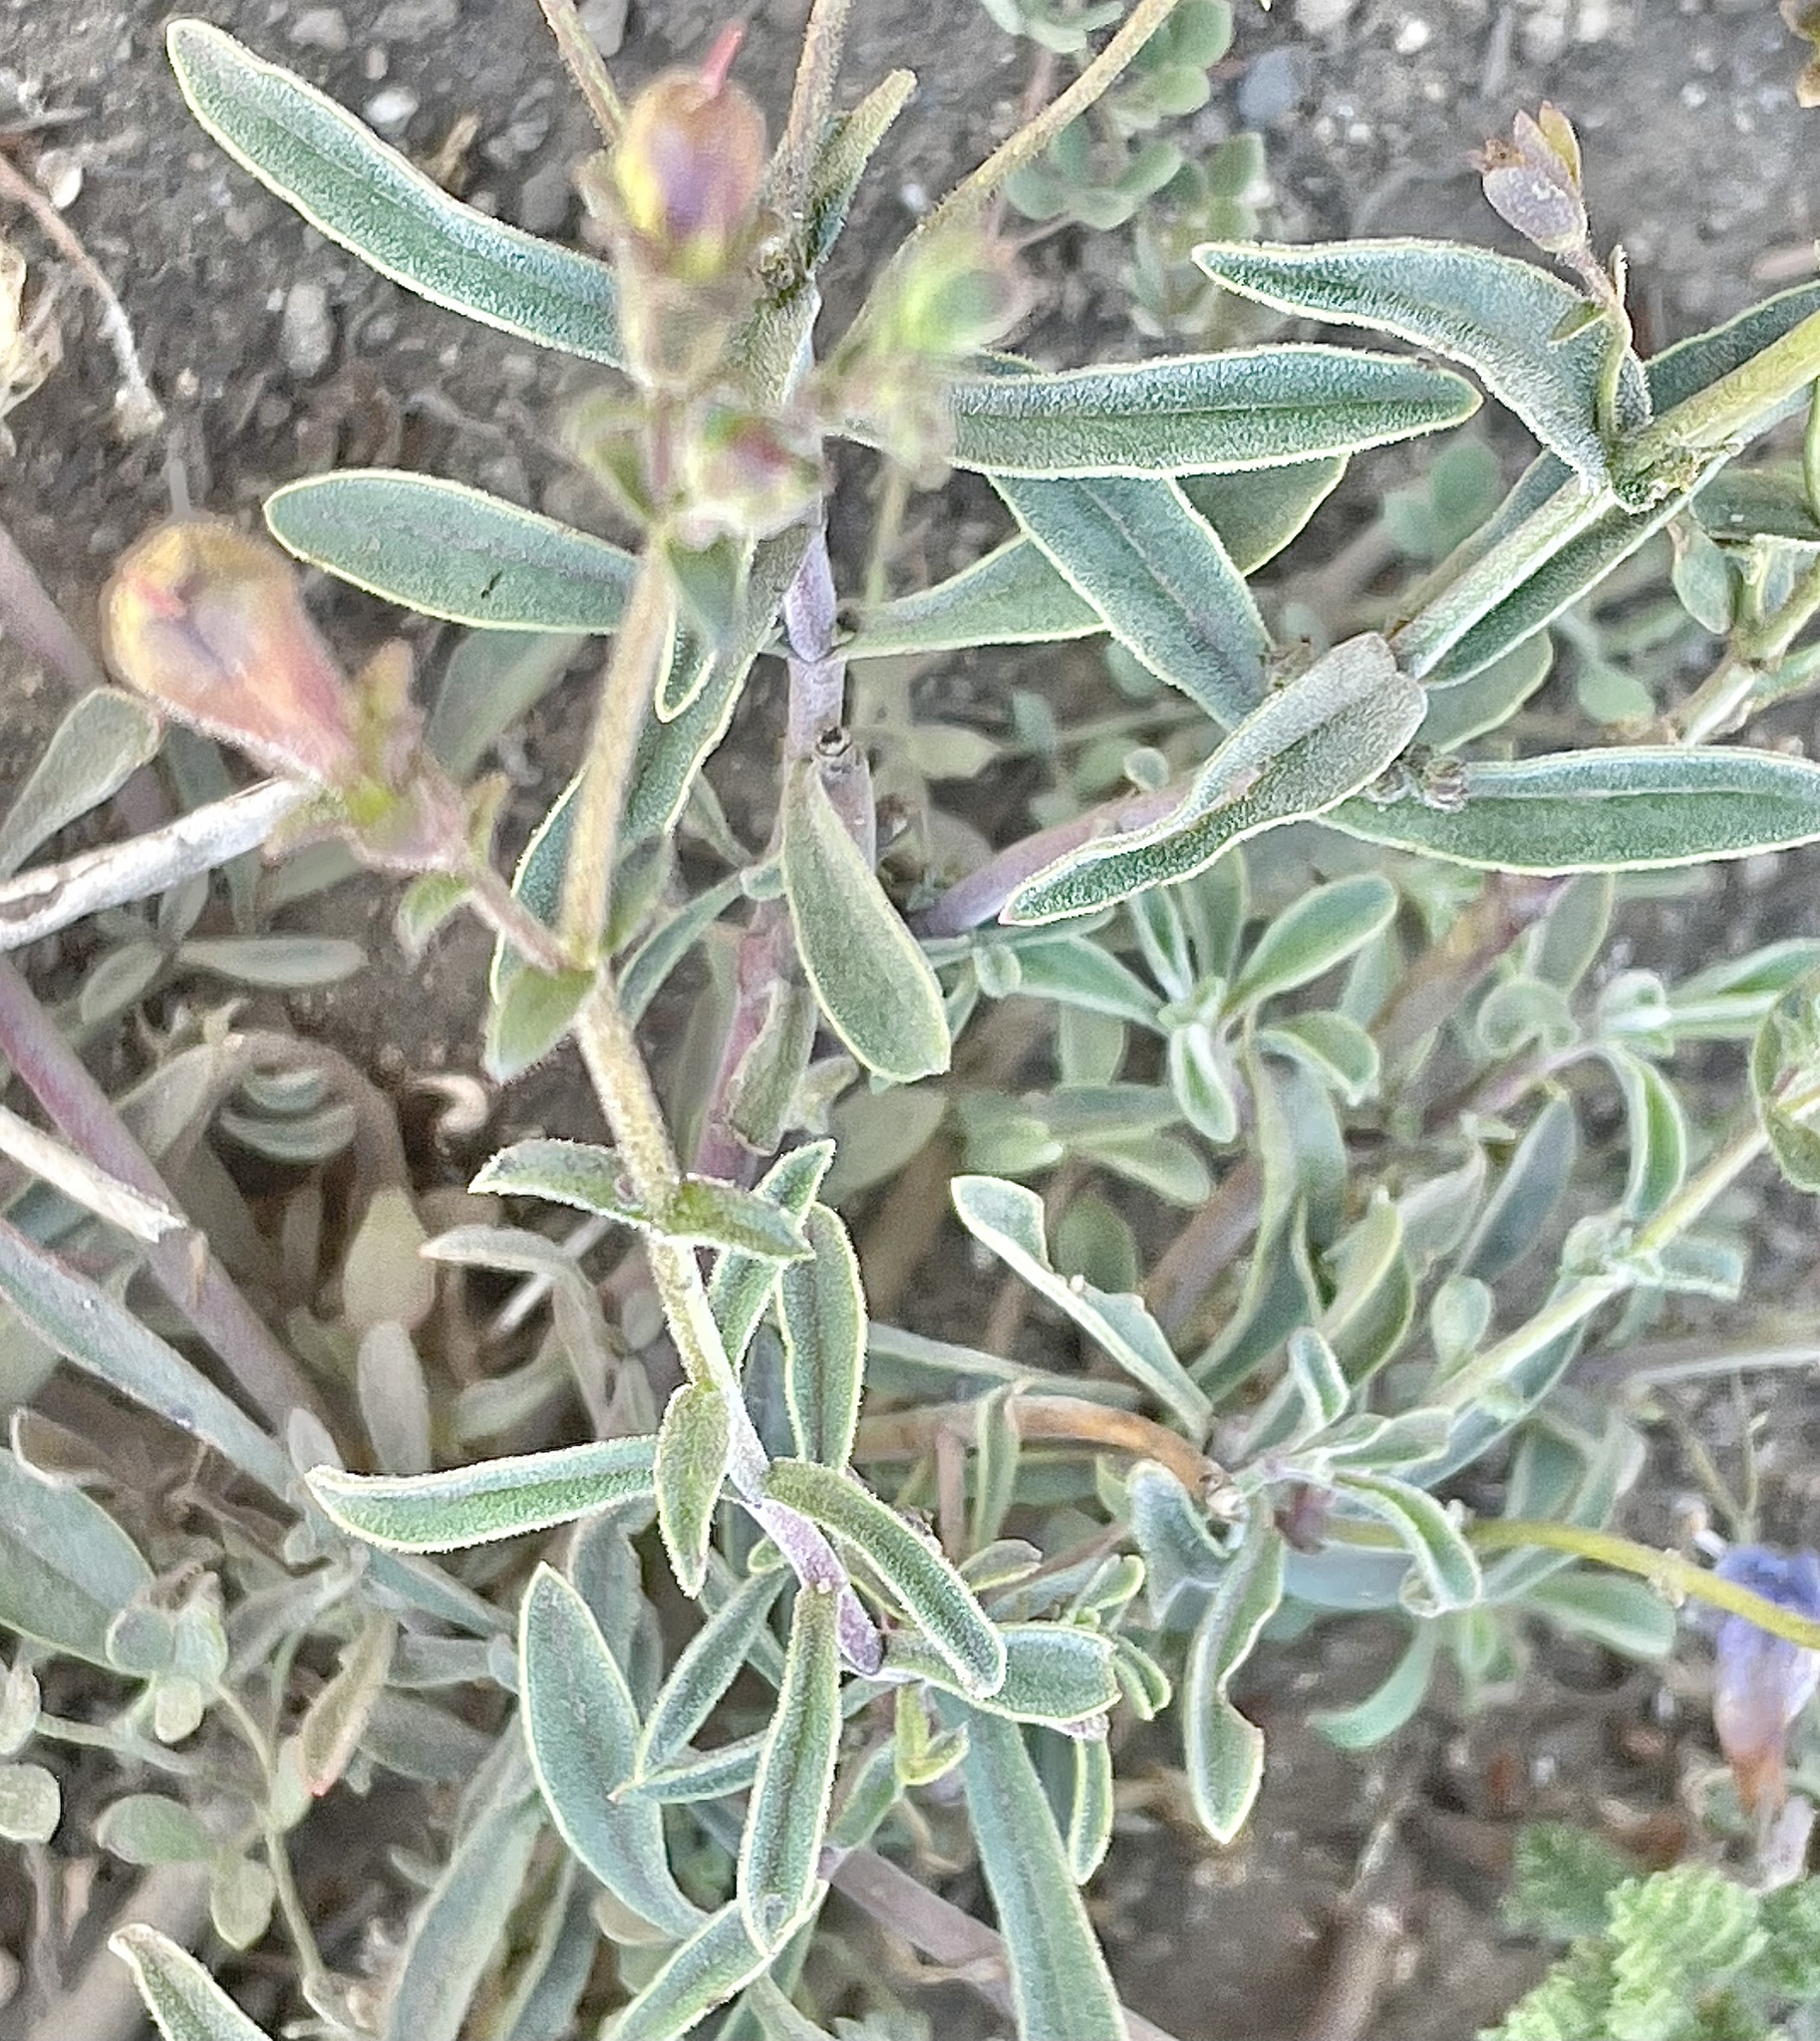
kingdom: Plantae
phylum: Tracheophyta
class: Magnoliopsida
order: Lamiales
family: Plantaginaceae
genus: Penstemon
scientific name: Penstemon laetus
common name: Gay penstemon
